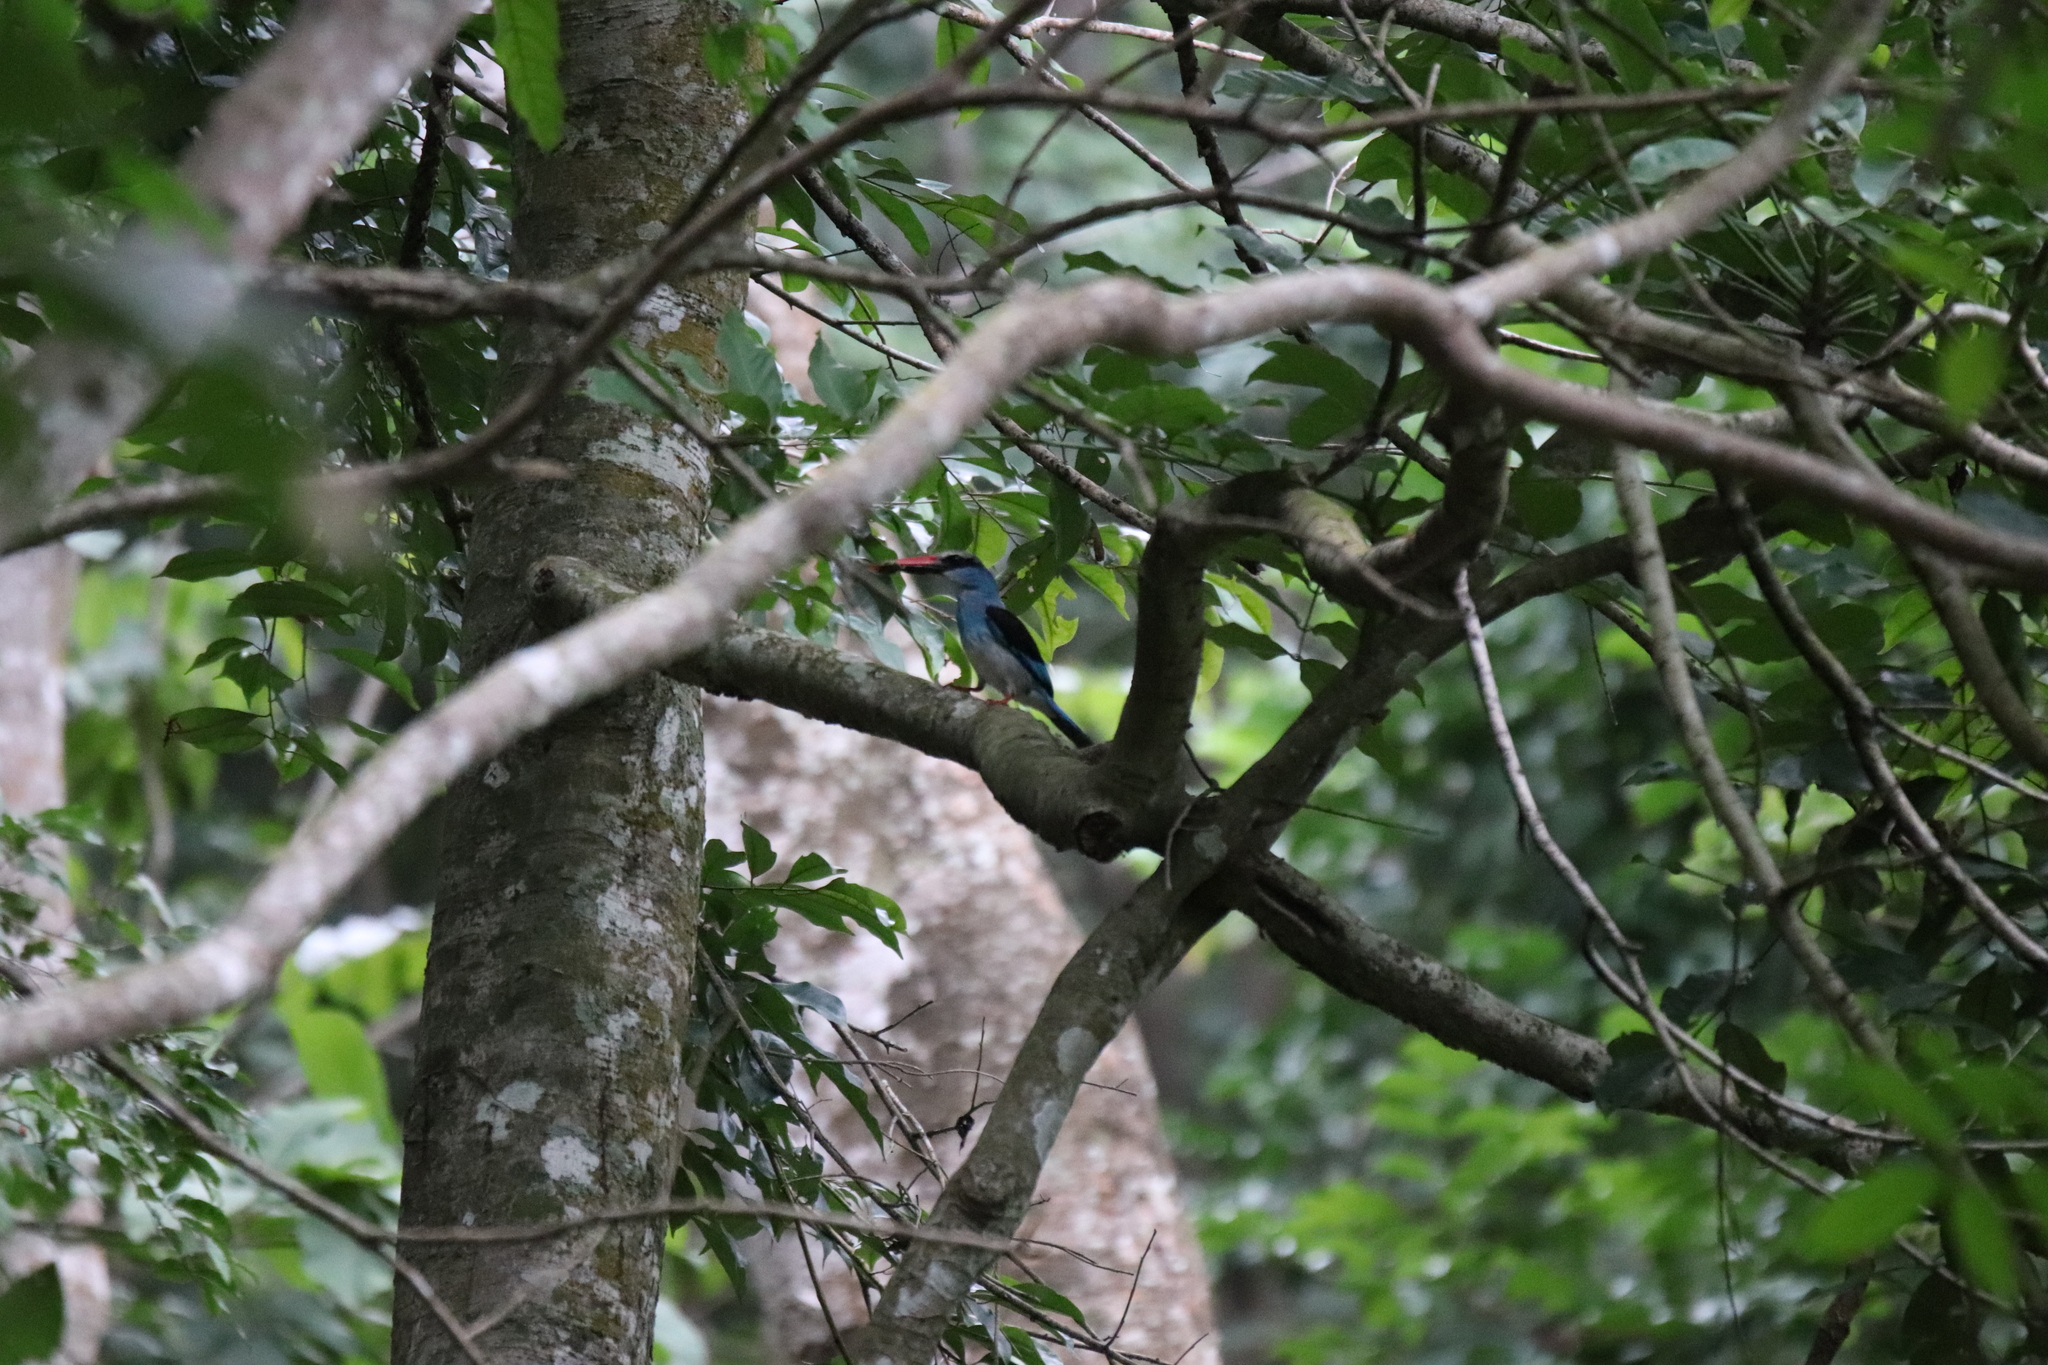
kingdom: Animalia
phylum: Chordata
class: Aves
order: Coraciiformes
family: Alcedinidae
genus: Halcyon
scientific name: Halcyon malimbica
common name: Blue-breasted kingfisher
